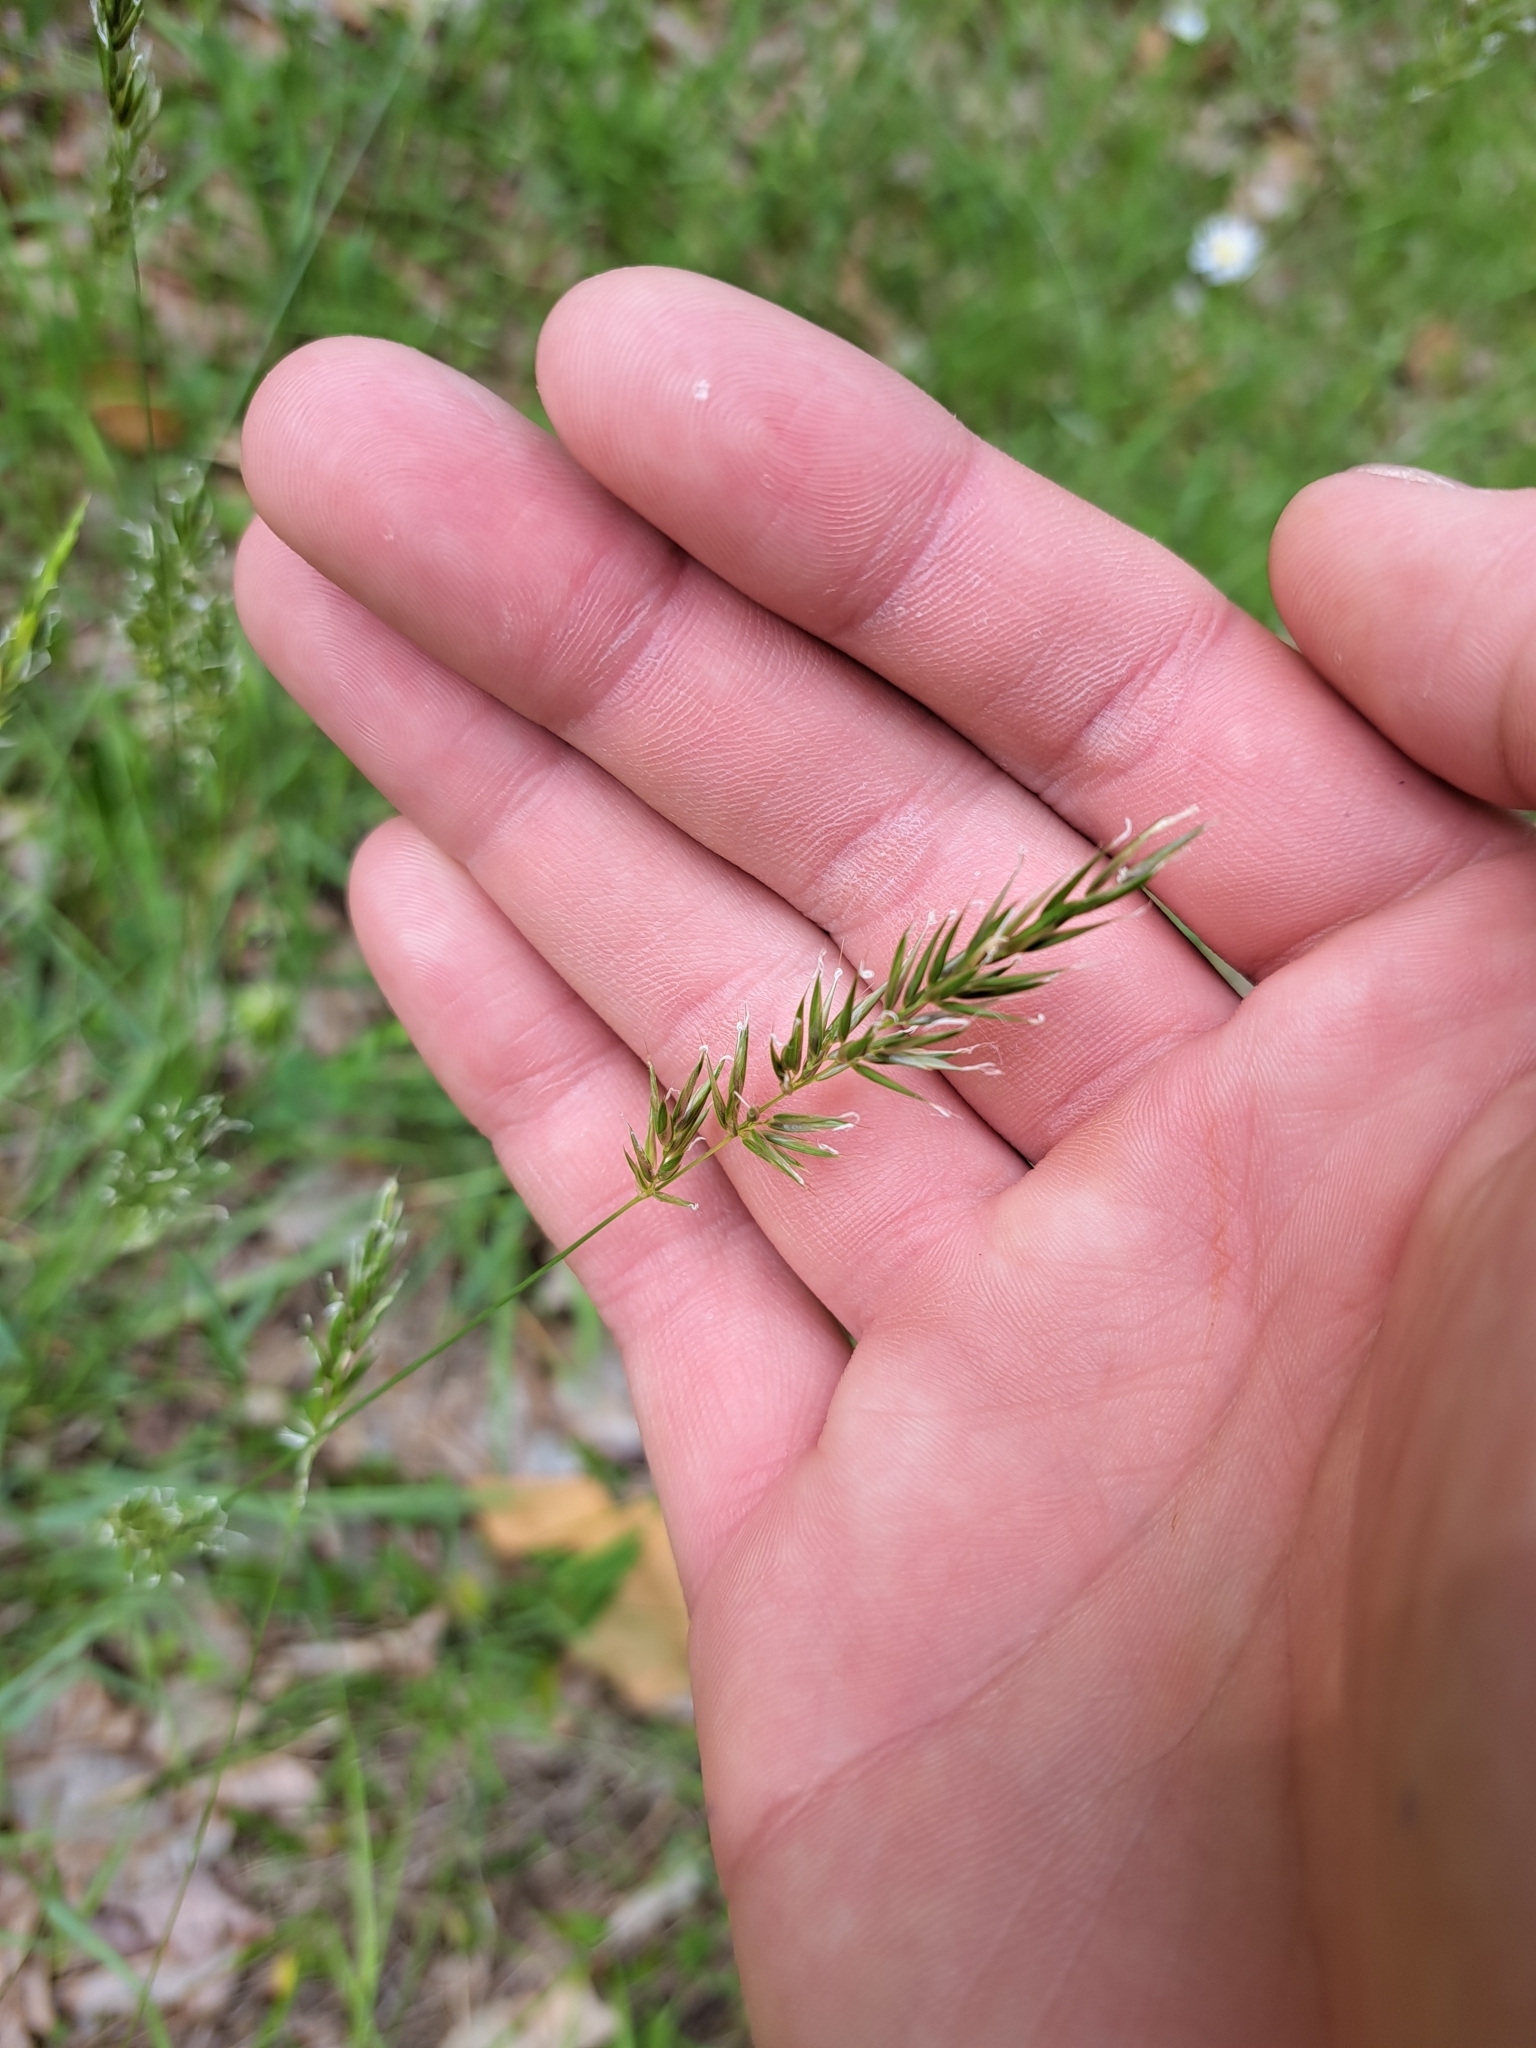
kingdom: Plantae
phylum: Tracheophyta
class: Liliopsida
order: Poales
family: Poaceae
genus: Anthoxanthum
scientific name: Anthoxanthum odoratum
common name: Sweet vernalgrass
